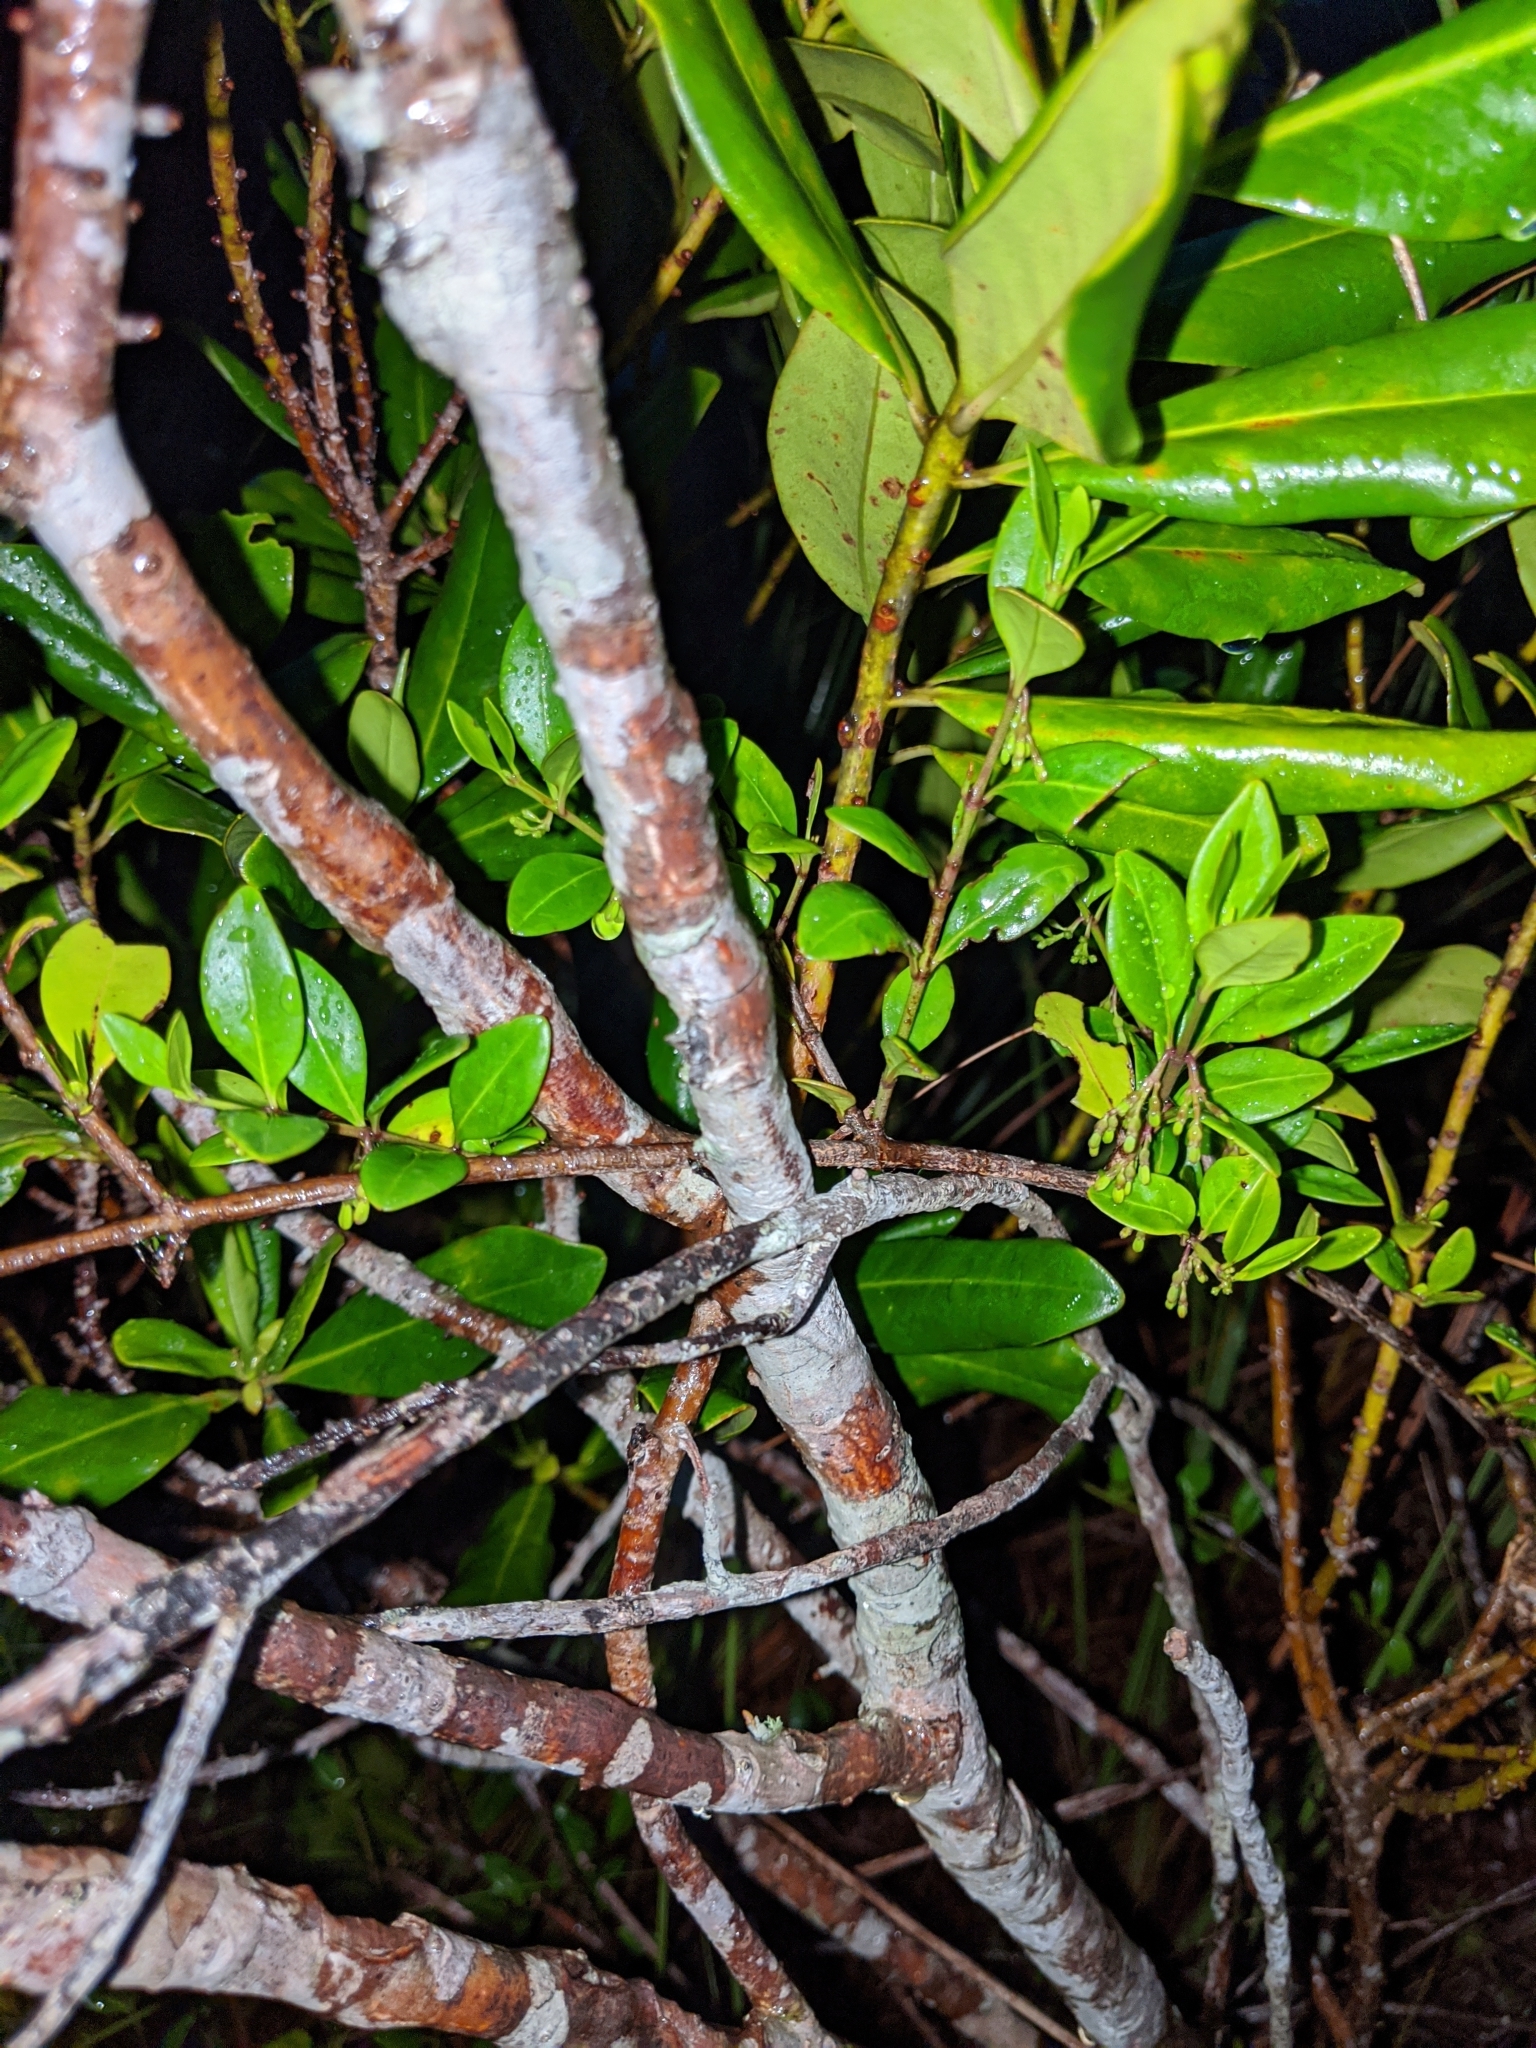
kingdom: Plantae
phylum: Tracheophyta
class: Magnoliopsida
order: Ericales
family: Primulaceae
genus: Myrsine
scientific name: Myrsine floridana
